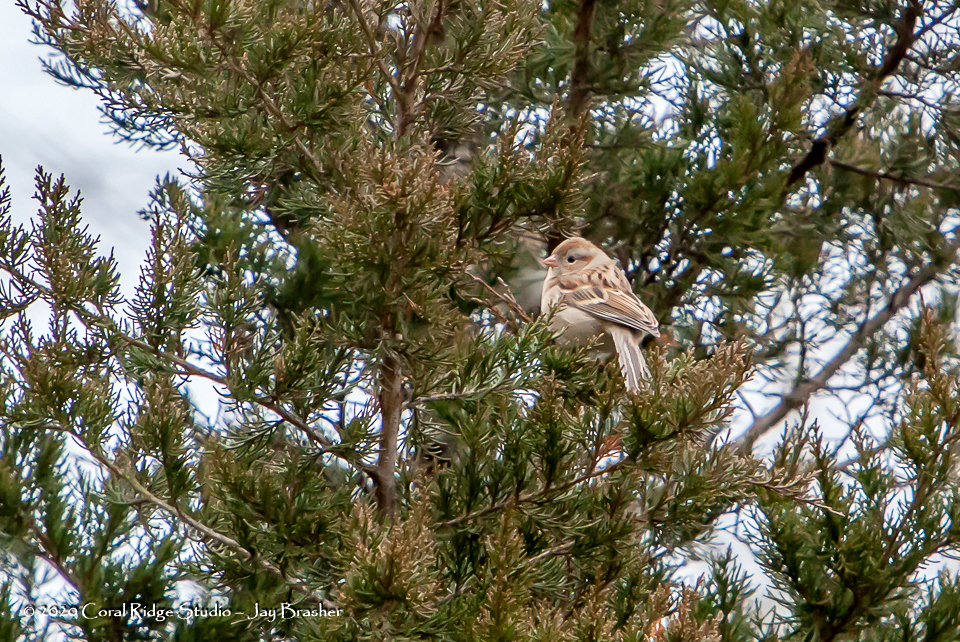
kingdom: Animalia
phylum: Chordata
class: Aves
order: Passeriformes
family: Passerellidae
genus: Spizella
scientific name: Spizella pusilla
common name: Field sparrow
